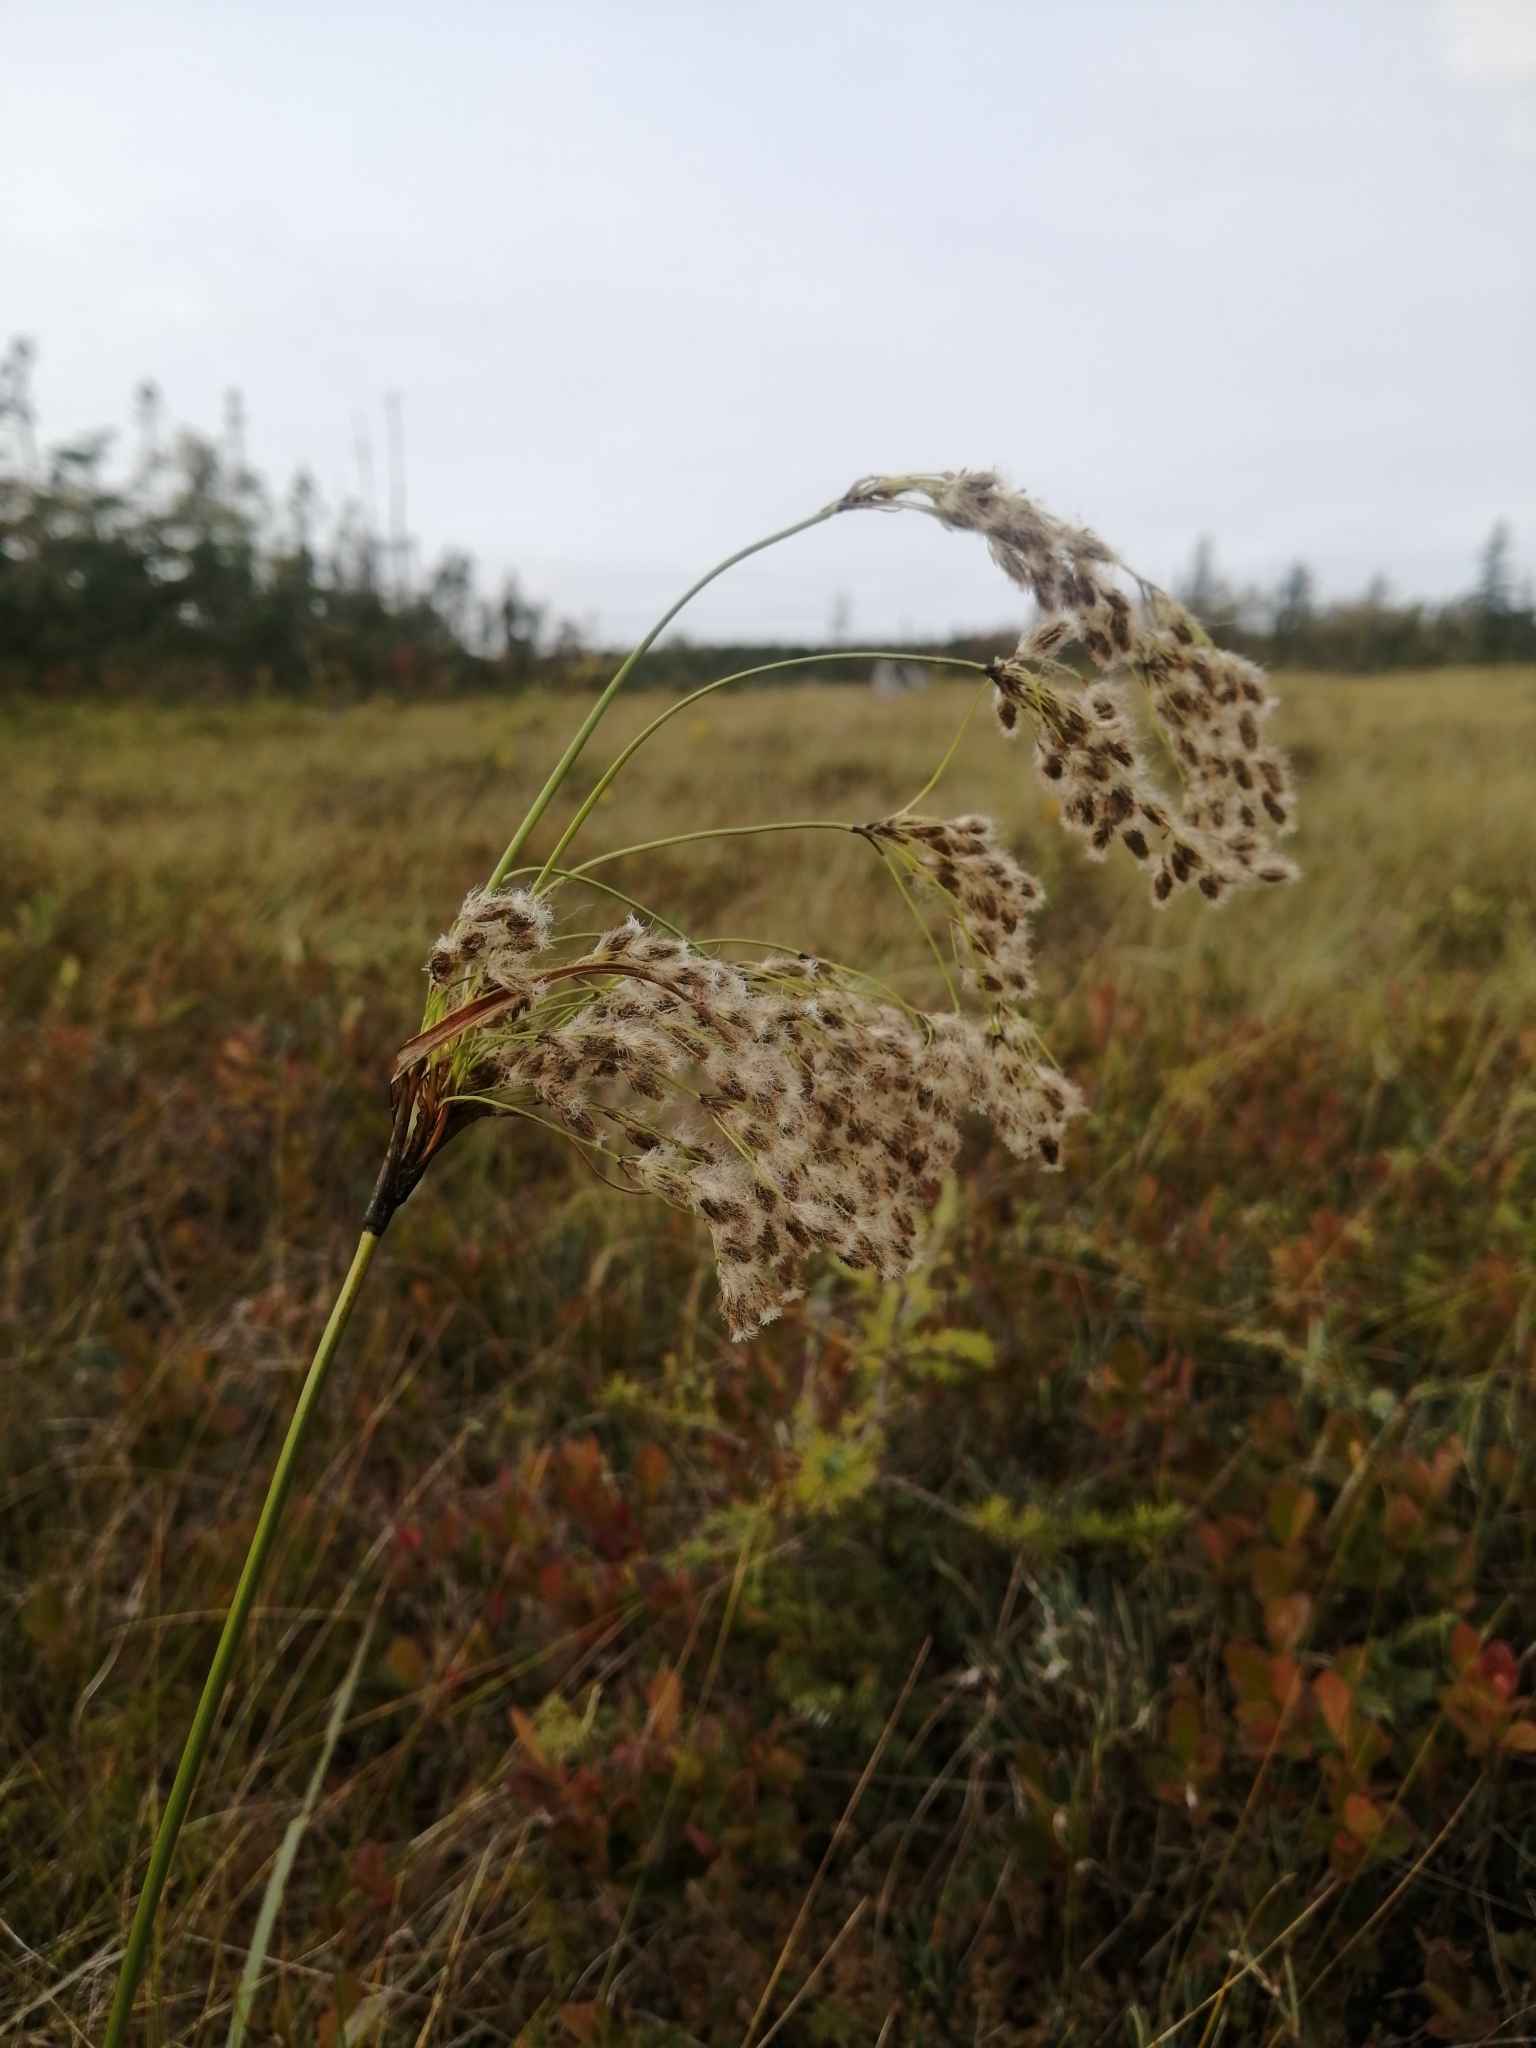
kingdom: Plantae
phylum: Tracheophyta
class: Liliopsida
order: Poales
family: Cyperaceae
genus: Scirpus
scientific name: Scirpus longii
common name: Long's bulrush
